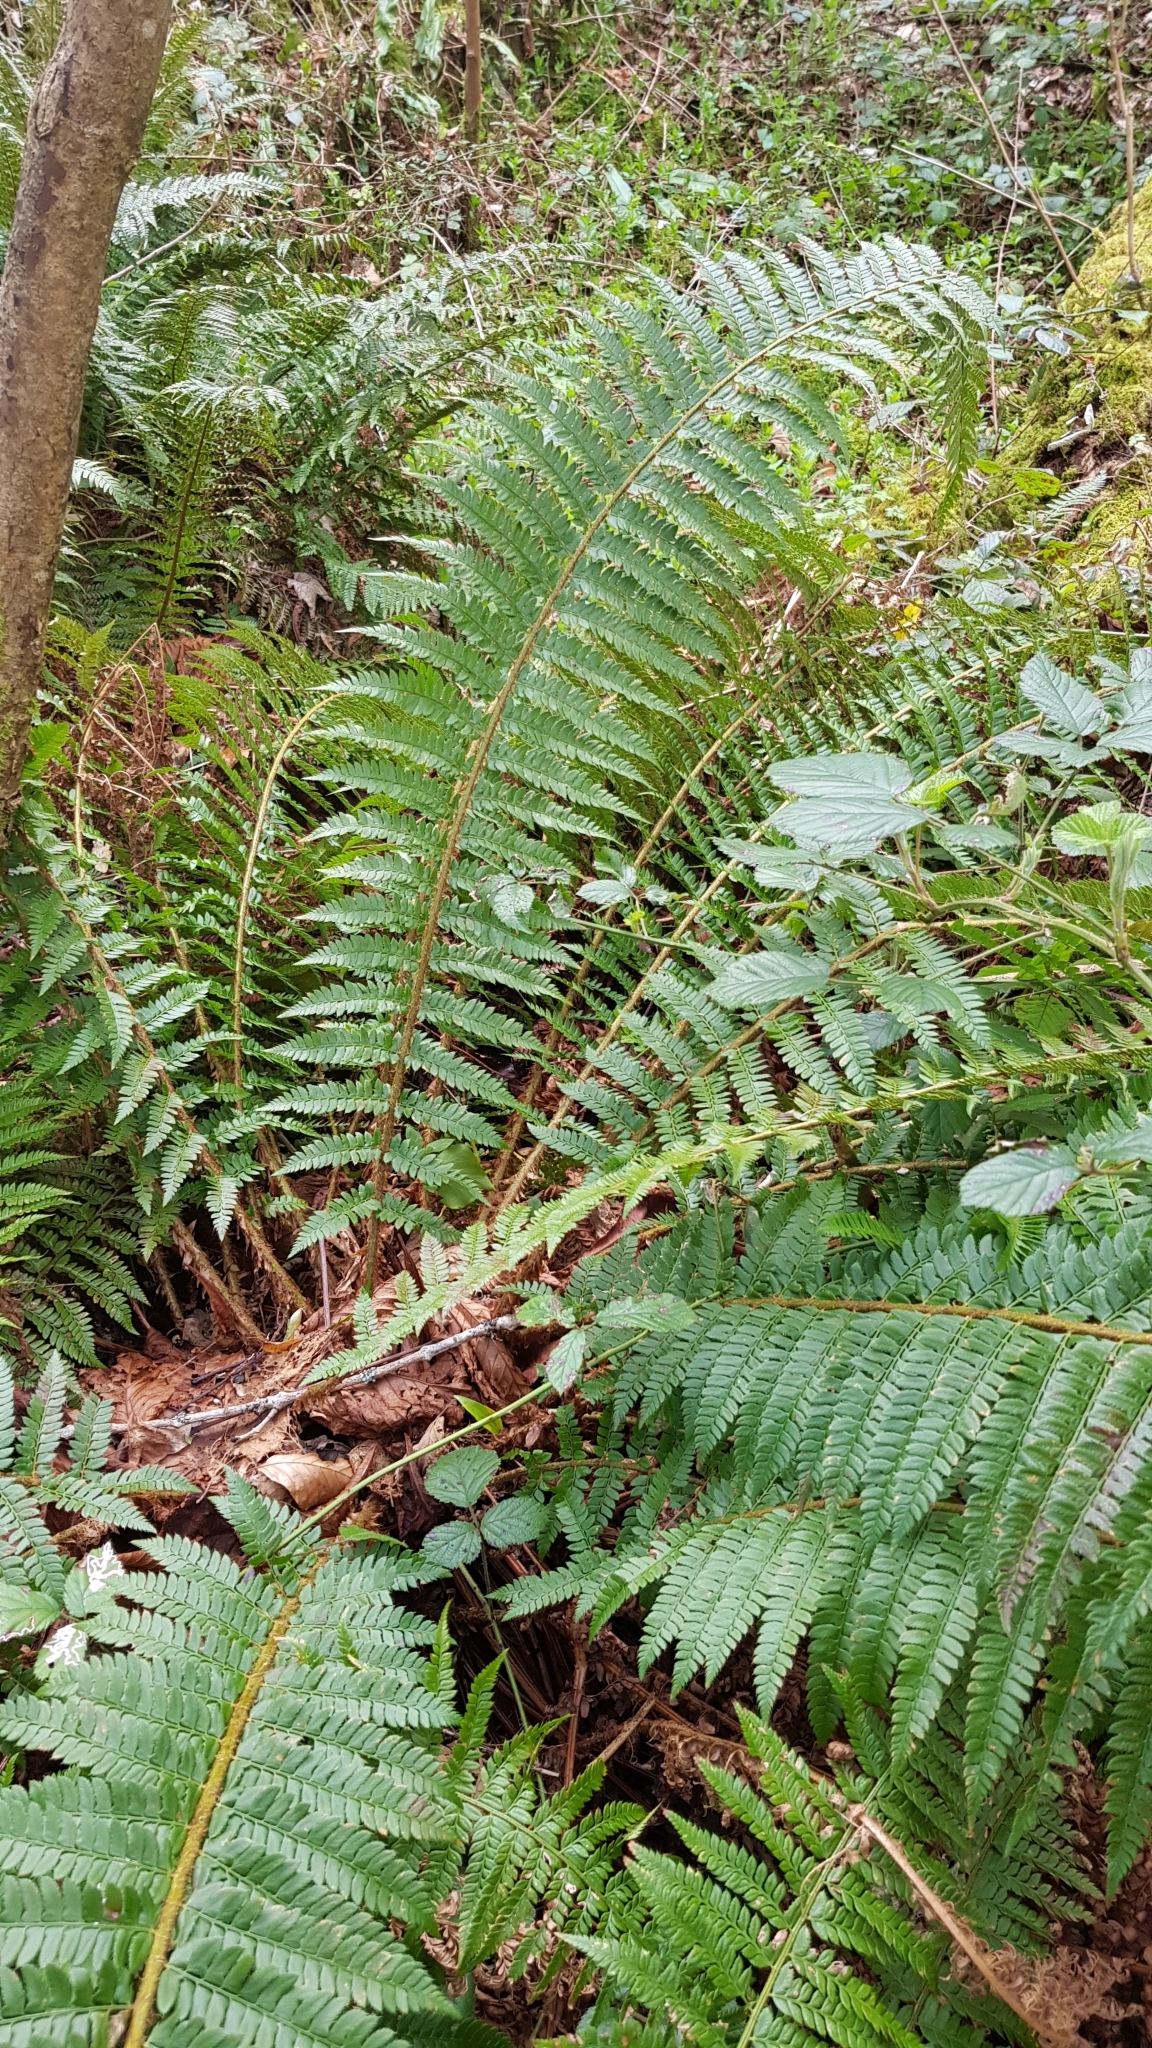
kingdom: Plantae
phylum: Tracheophyta
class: Polypodiopsida
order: Polypodiales
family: Dryopteridaceae
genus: Polystichum
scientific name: Polystichum aculeatum
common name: Hard shield-fern
